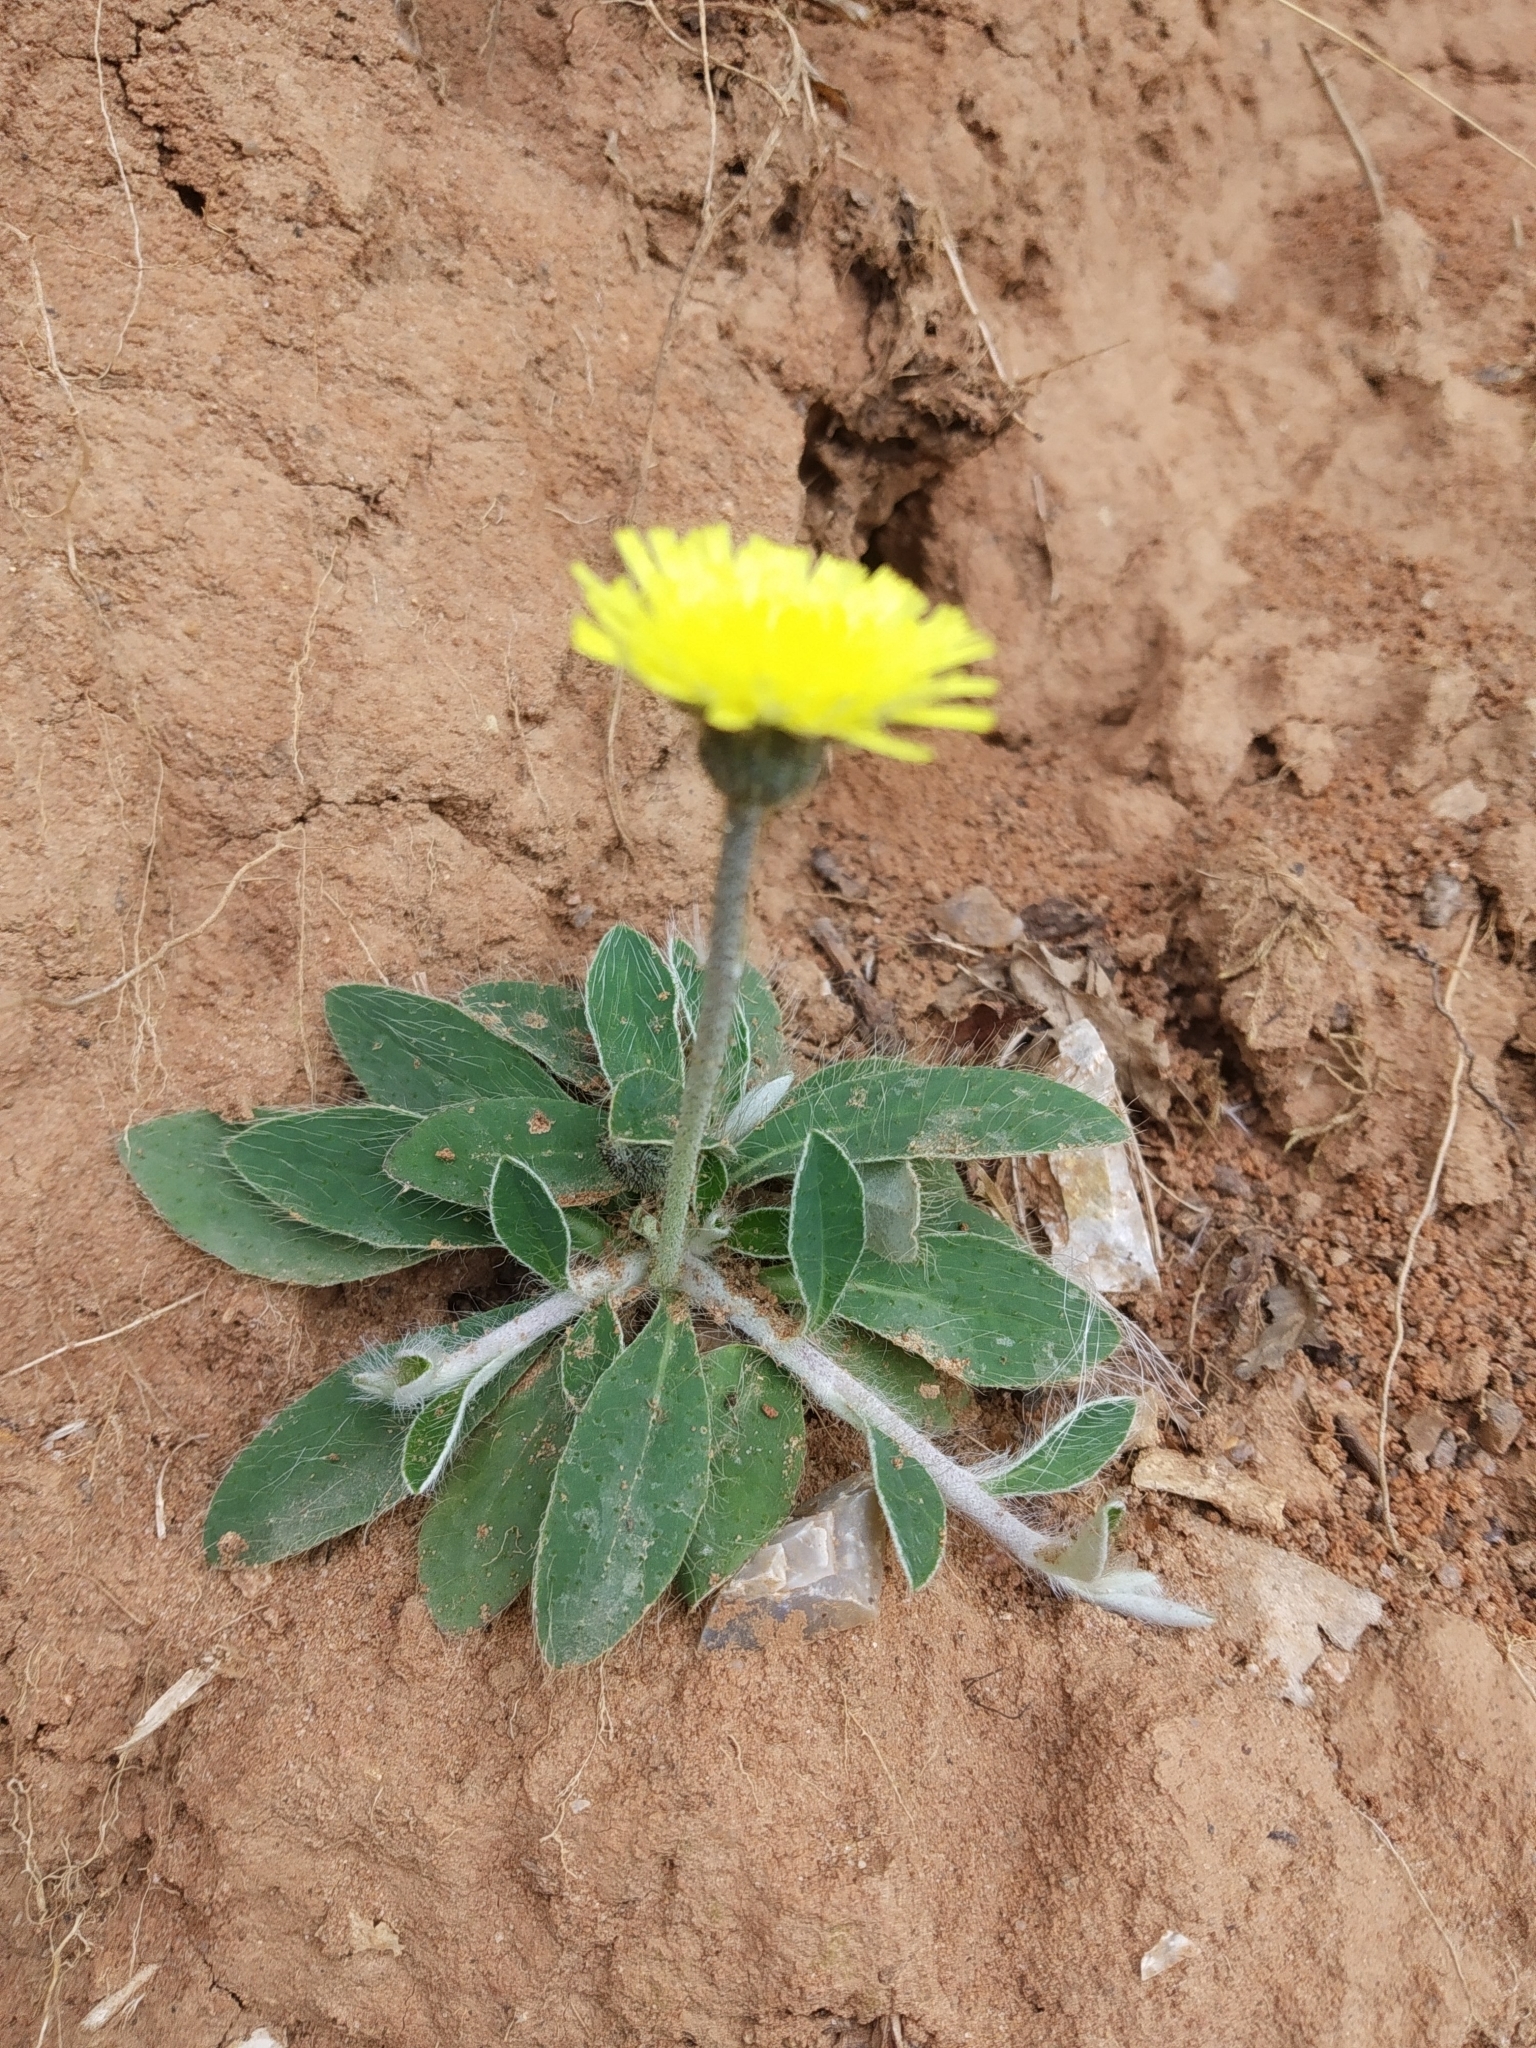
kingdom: Plantae
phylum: Tracheophyta
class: Magnoliopsida
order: Asterales
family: Asteraceae
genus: Pilosella
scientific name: Pilosella officinarum
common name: Mouse-ear hawkweed
